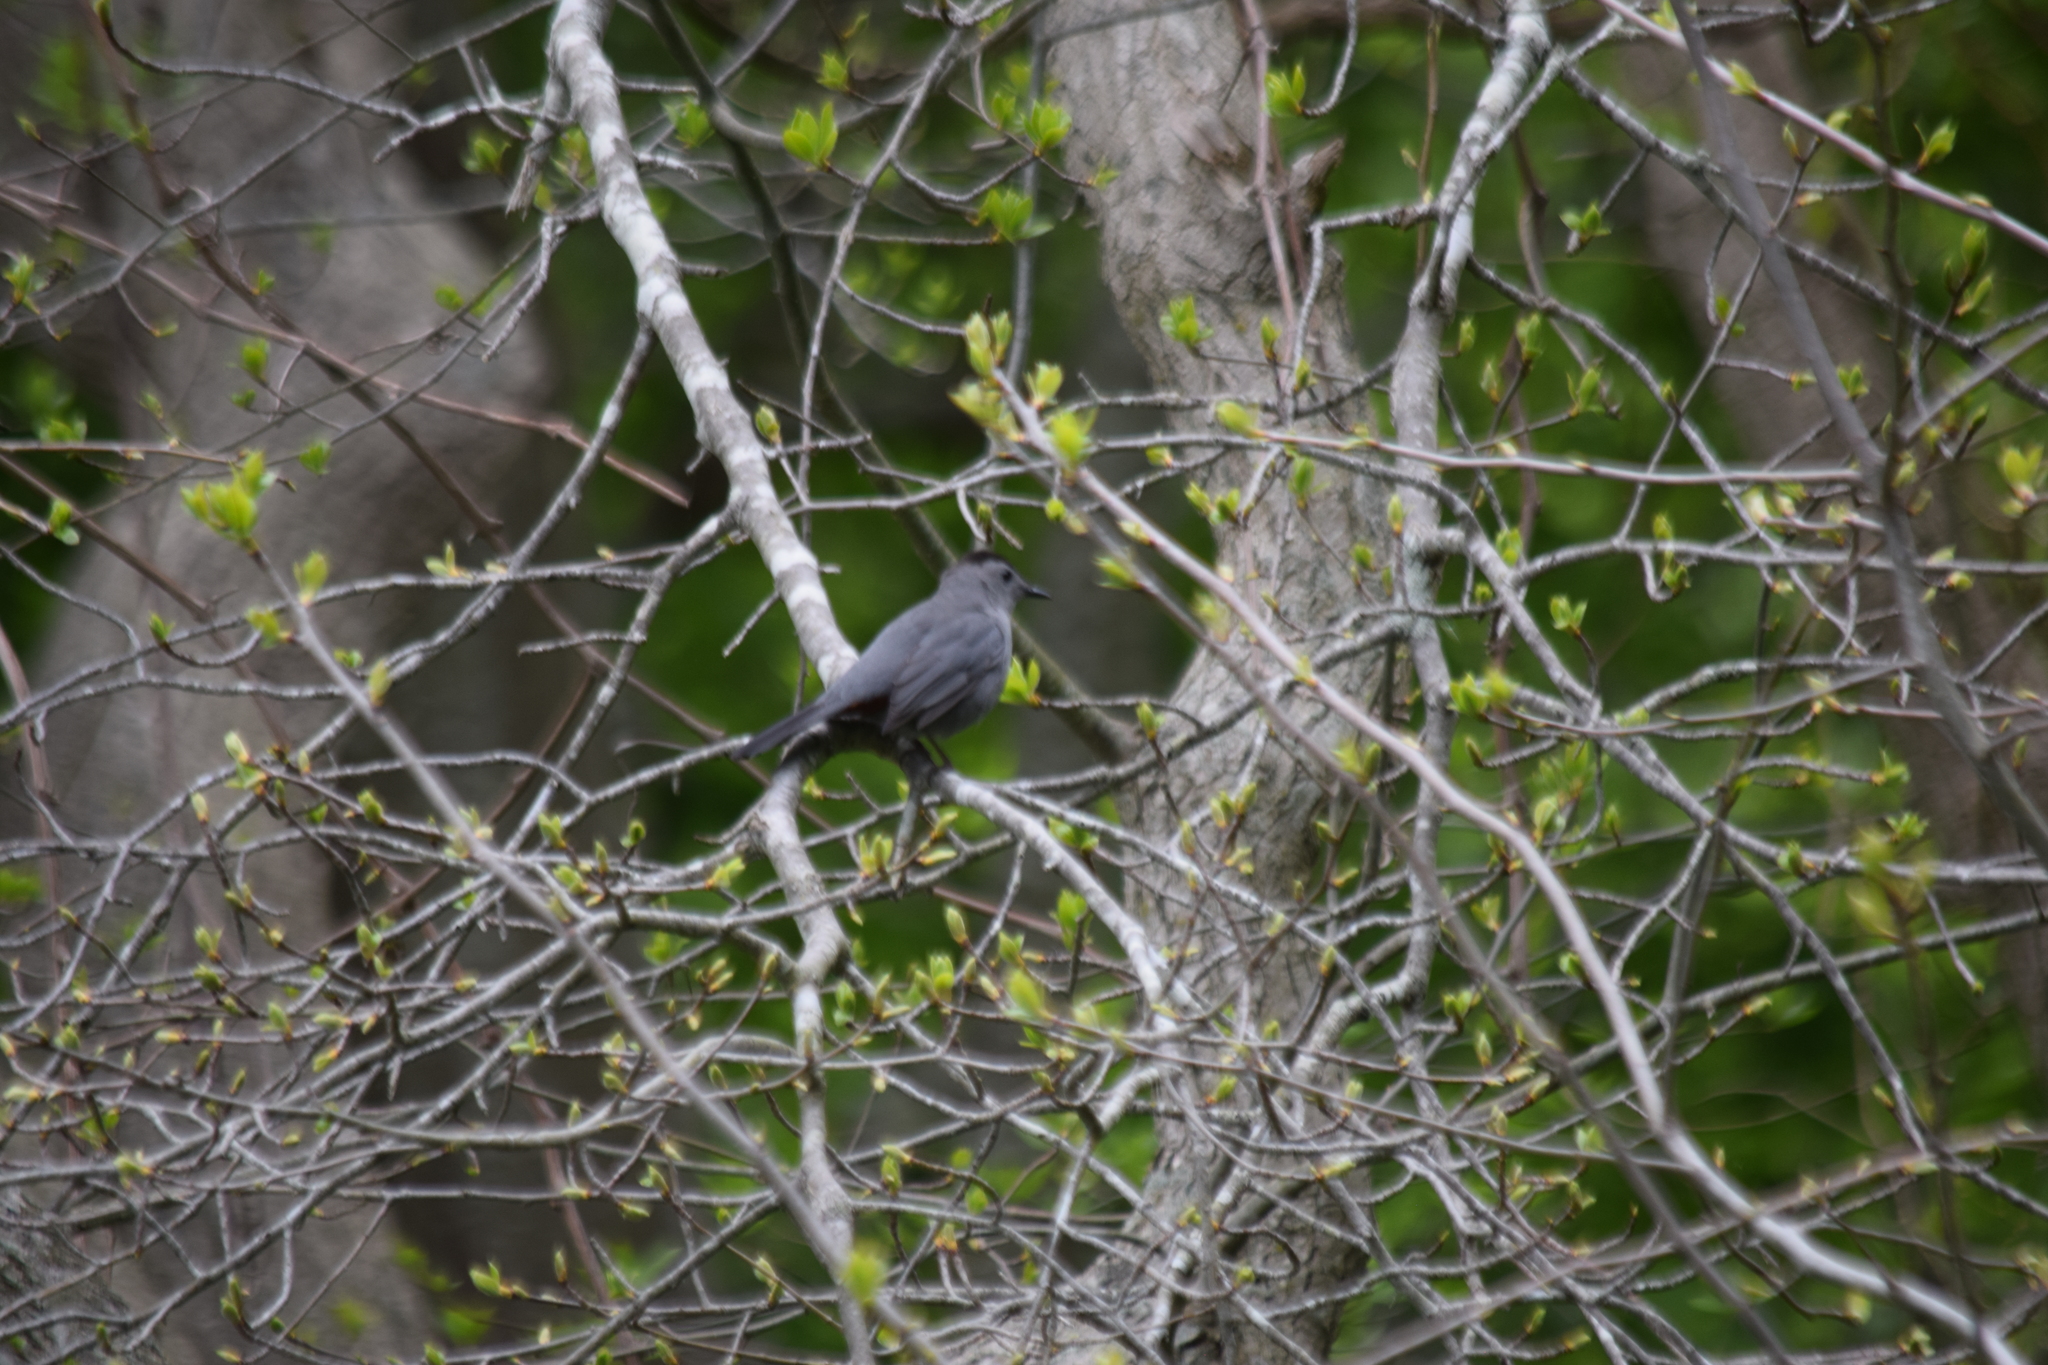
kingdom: Animalia
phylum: Chordata
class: Aves
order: Passeriformes
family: Mimidae
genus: Dumetella
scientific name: Dumetella carolinensis
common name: Gray catbird
